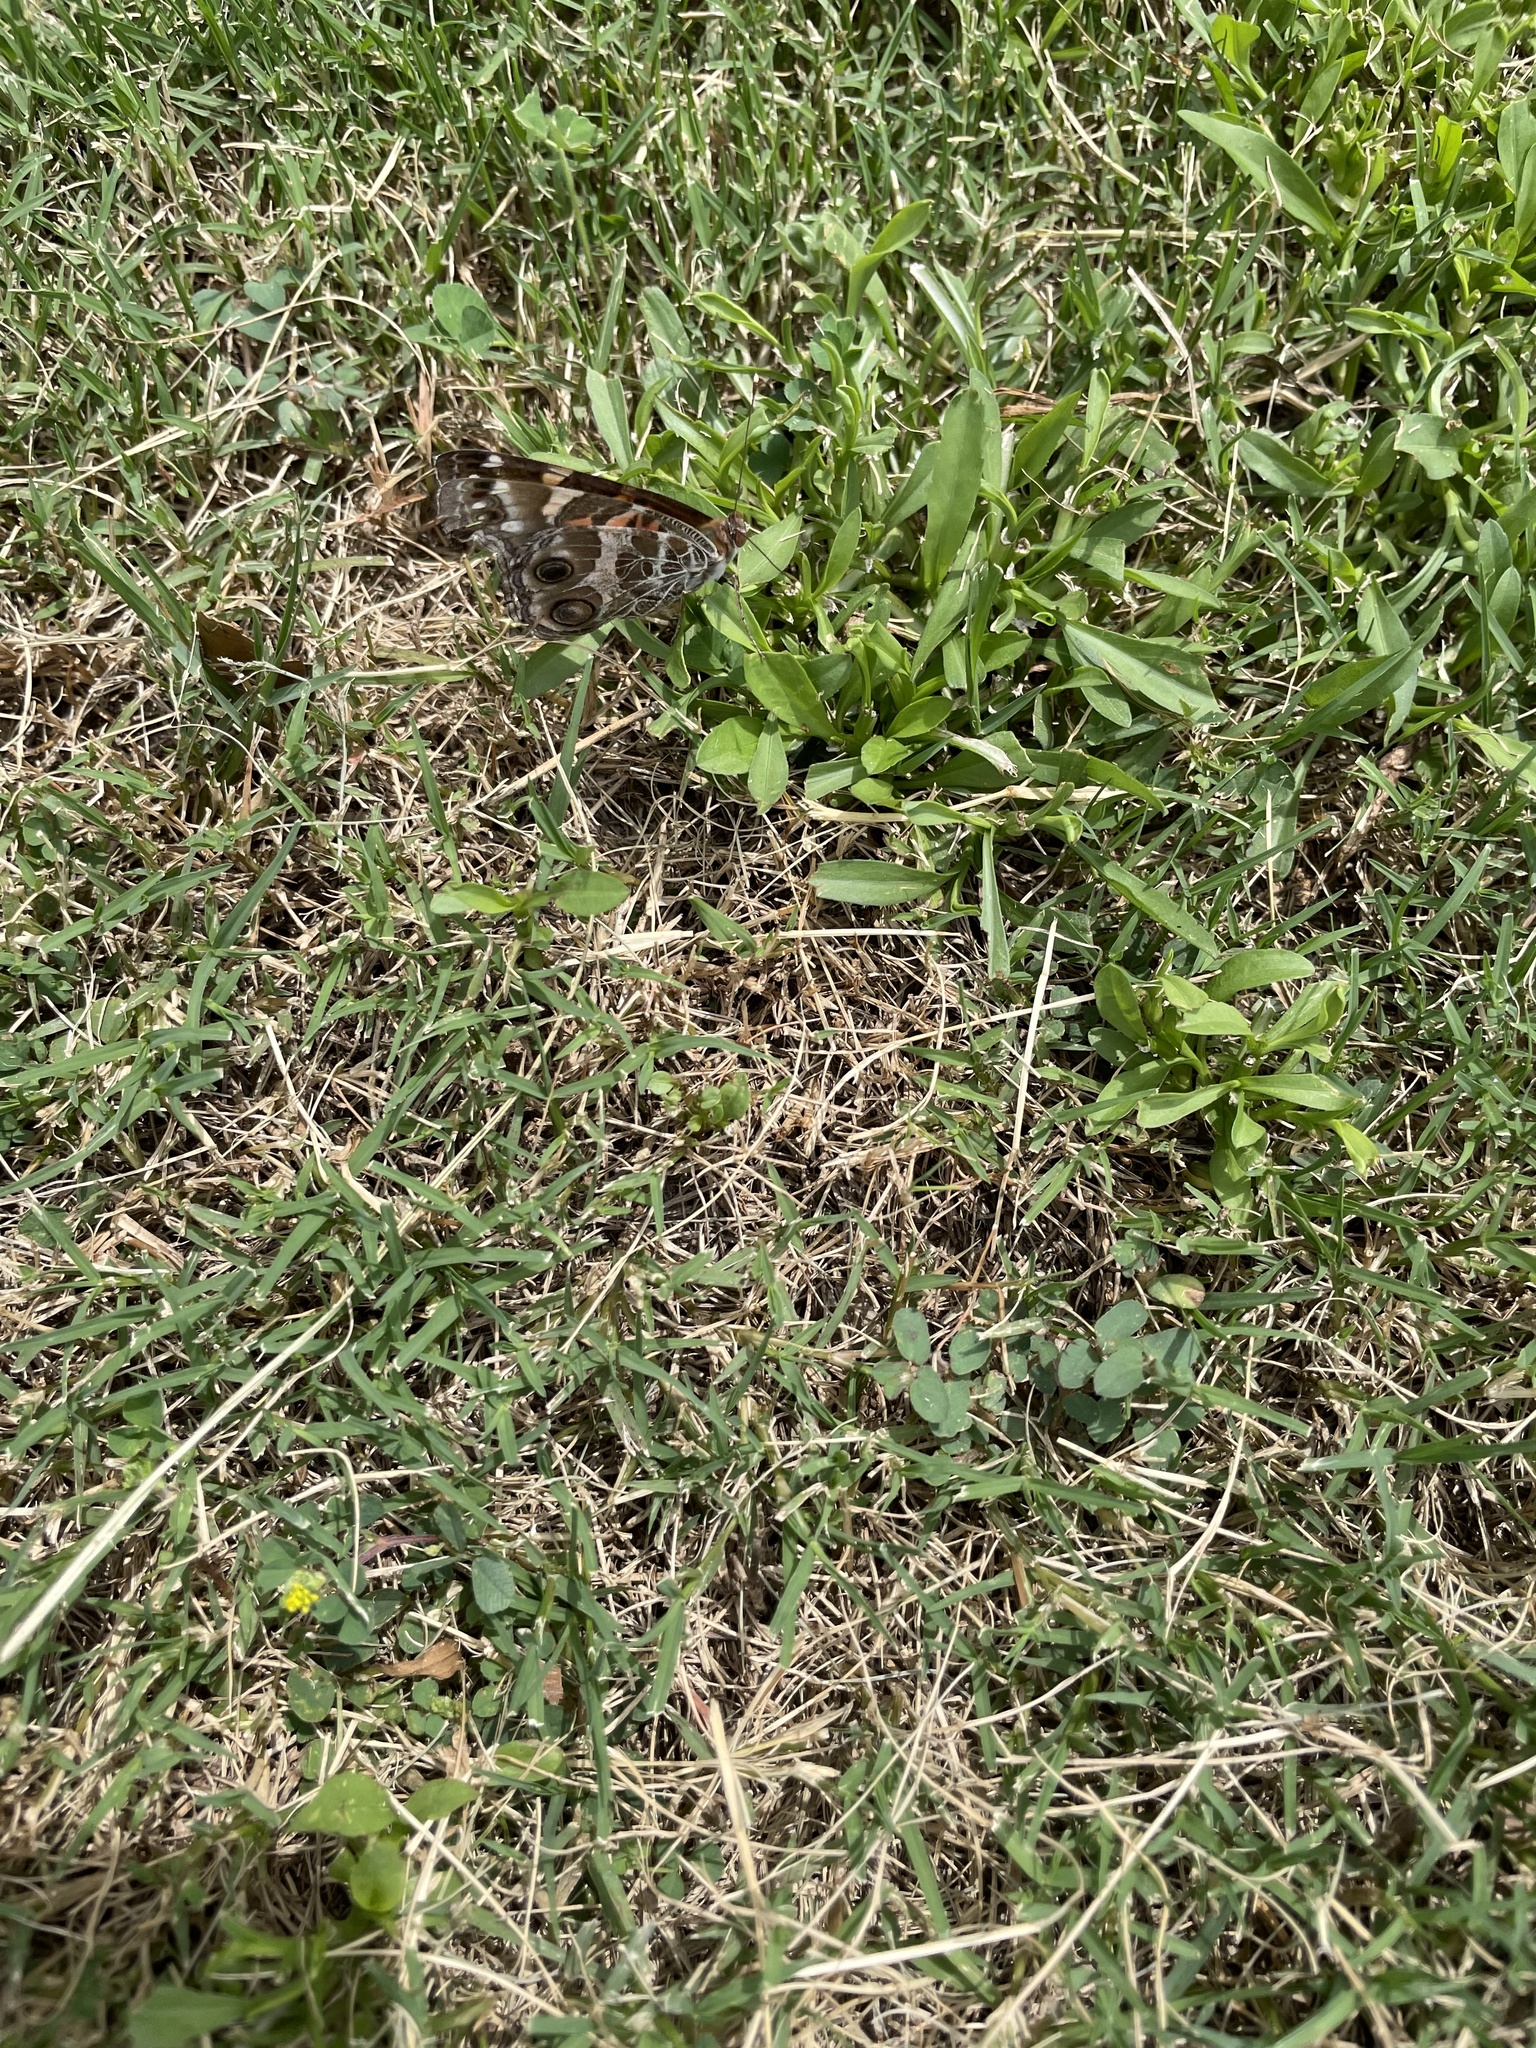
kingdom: Animalia
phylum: Arthropoda
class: Insecta
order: Lepidoptera
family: Nymphalidae
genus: Vanessa
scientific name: Vanessa virginiensis
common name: American lady
